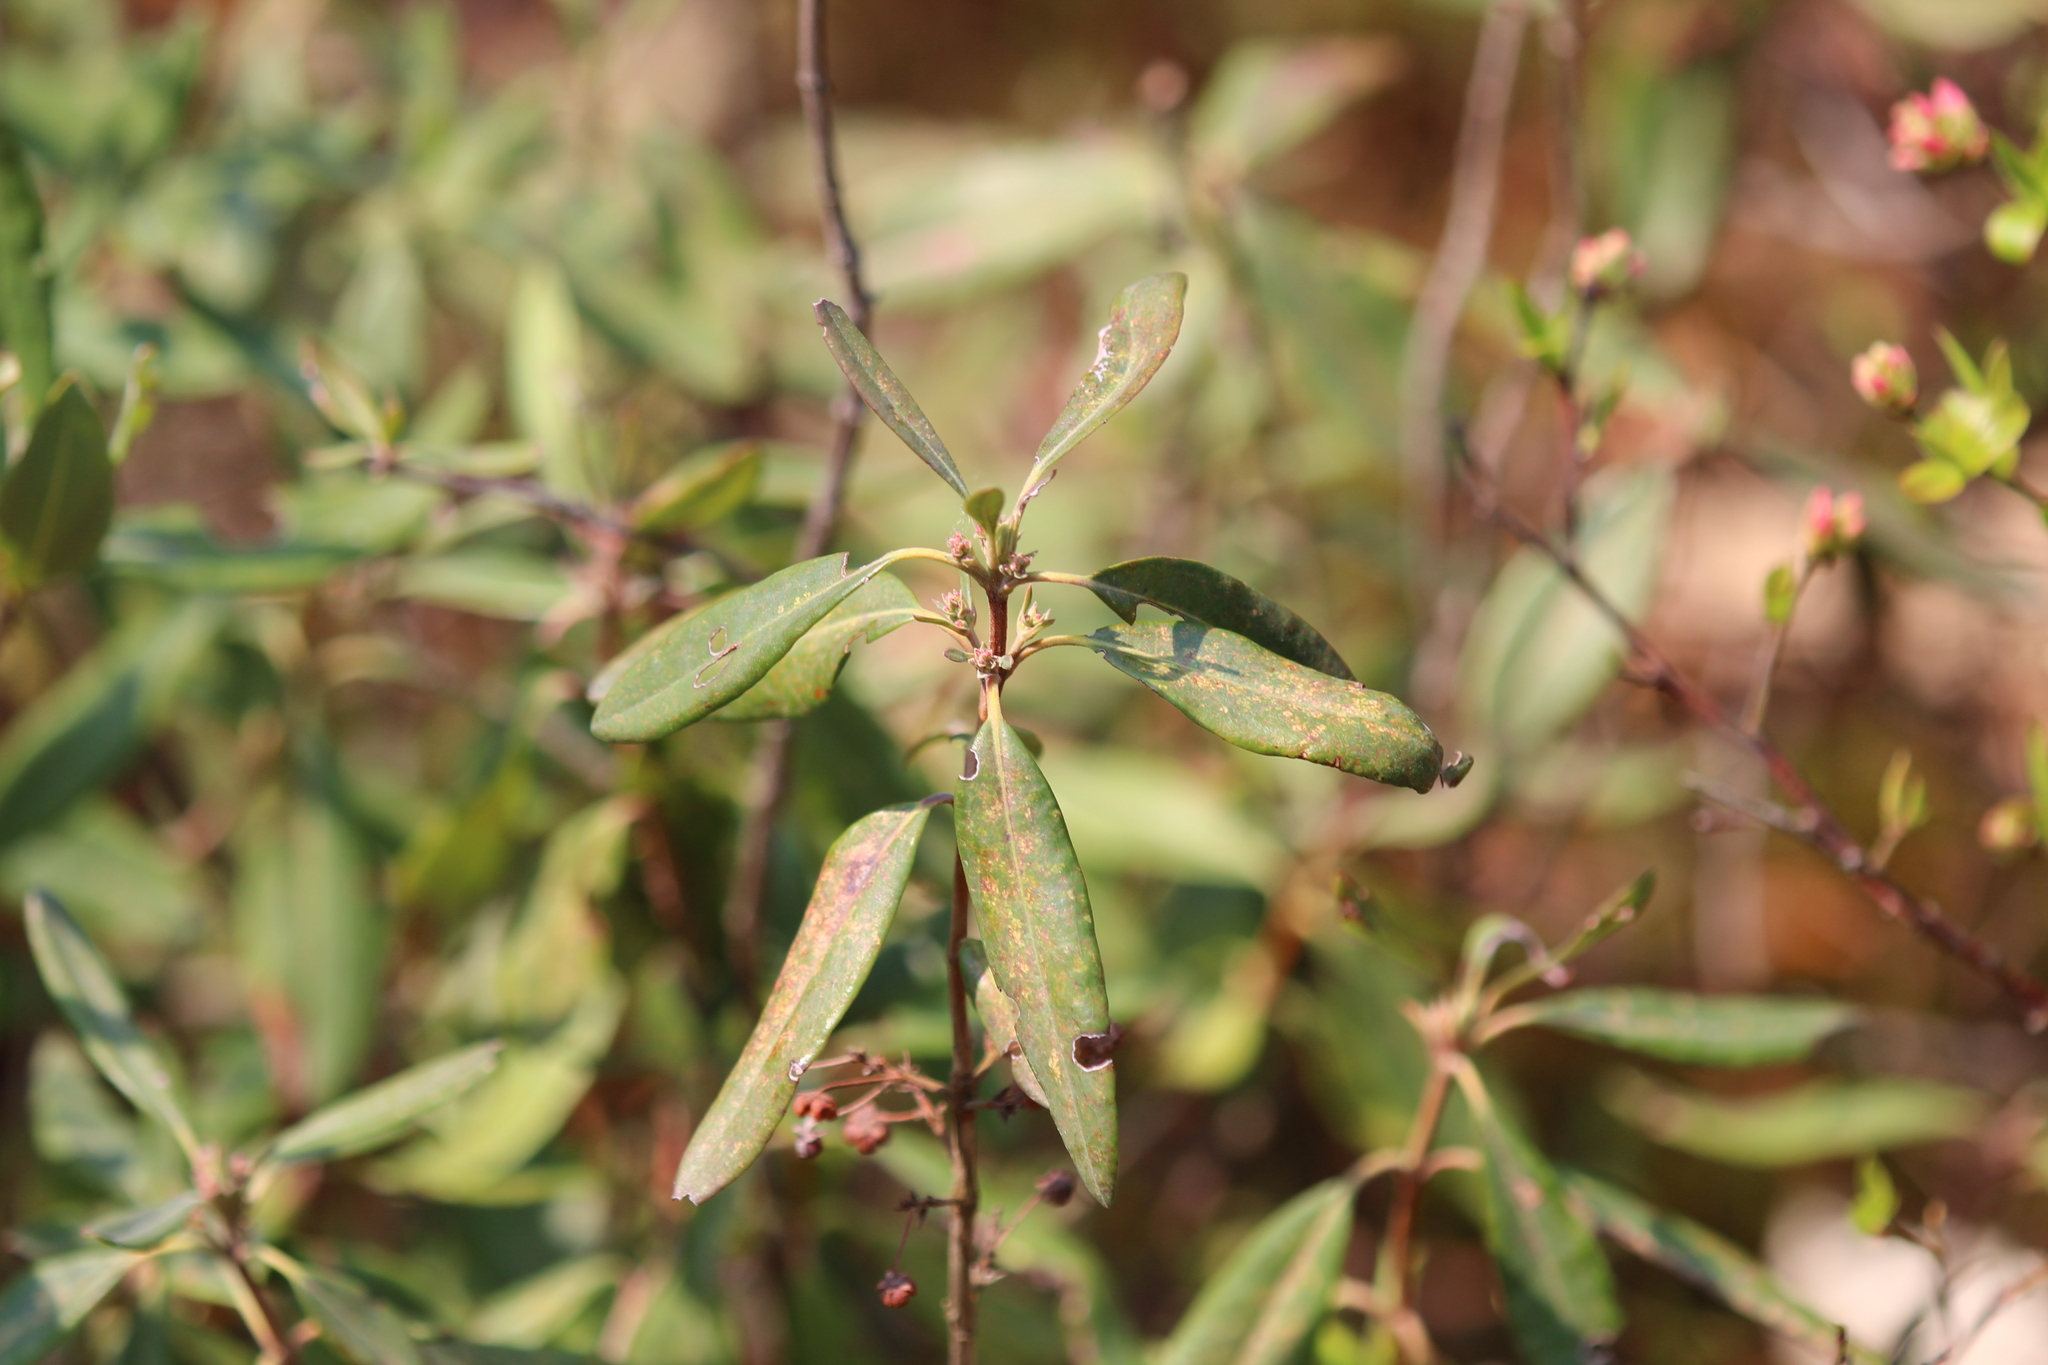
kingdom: Plantae
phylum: Tracheophyta
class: Magnoliopsida
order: Ericales
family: Ericaceae
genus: Kalmia
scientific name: Kalmia angustifolia
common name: Sheep-laurel
